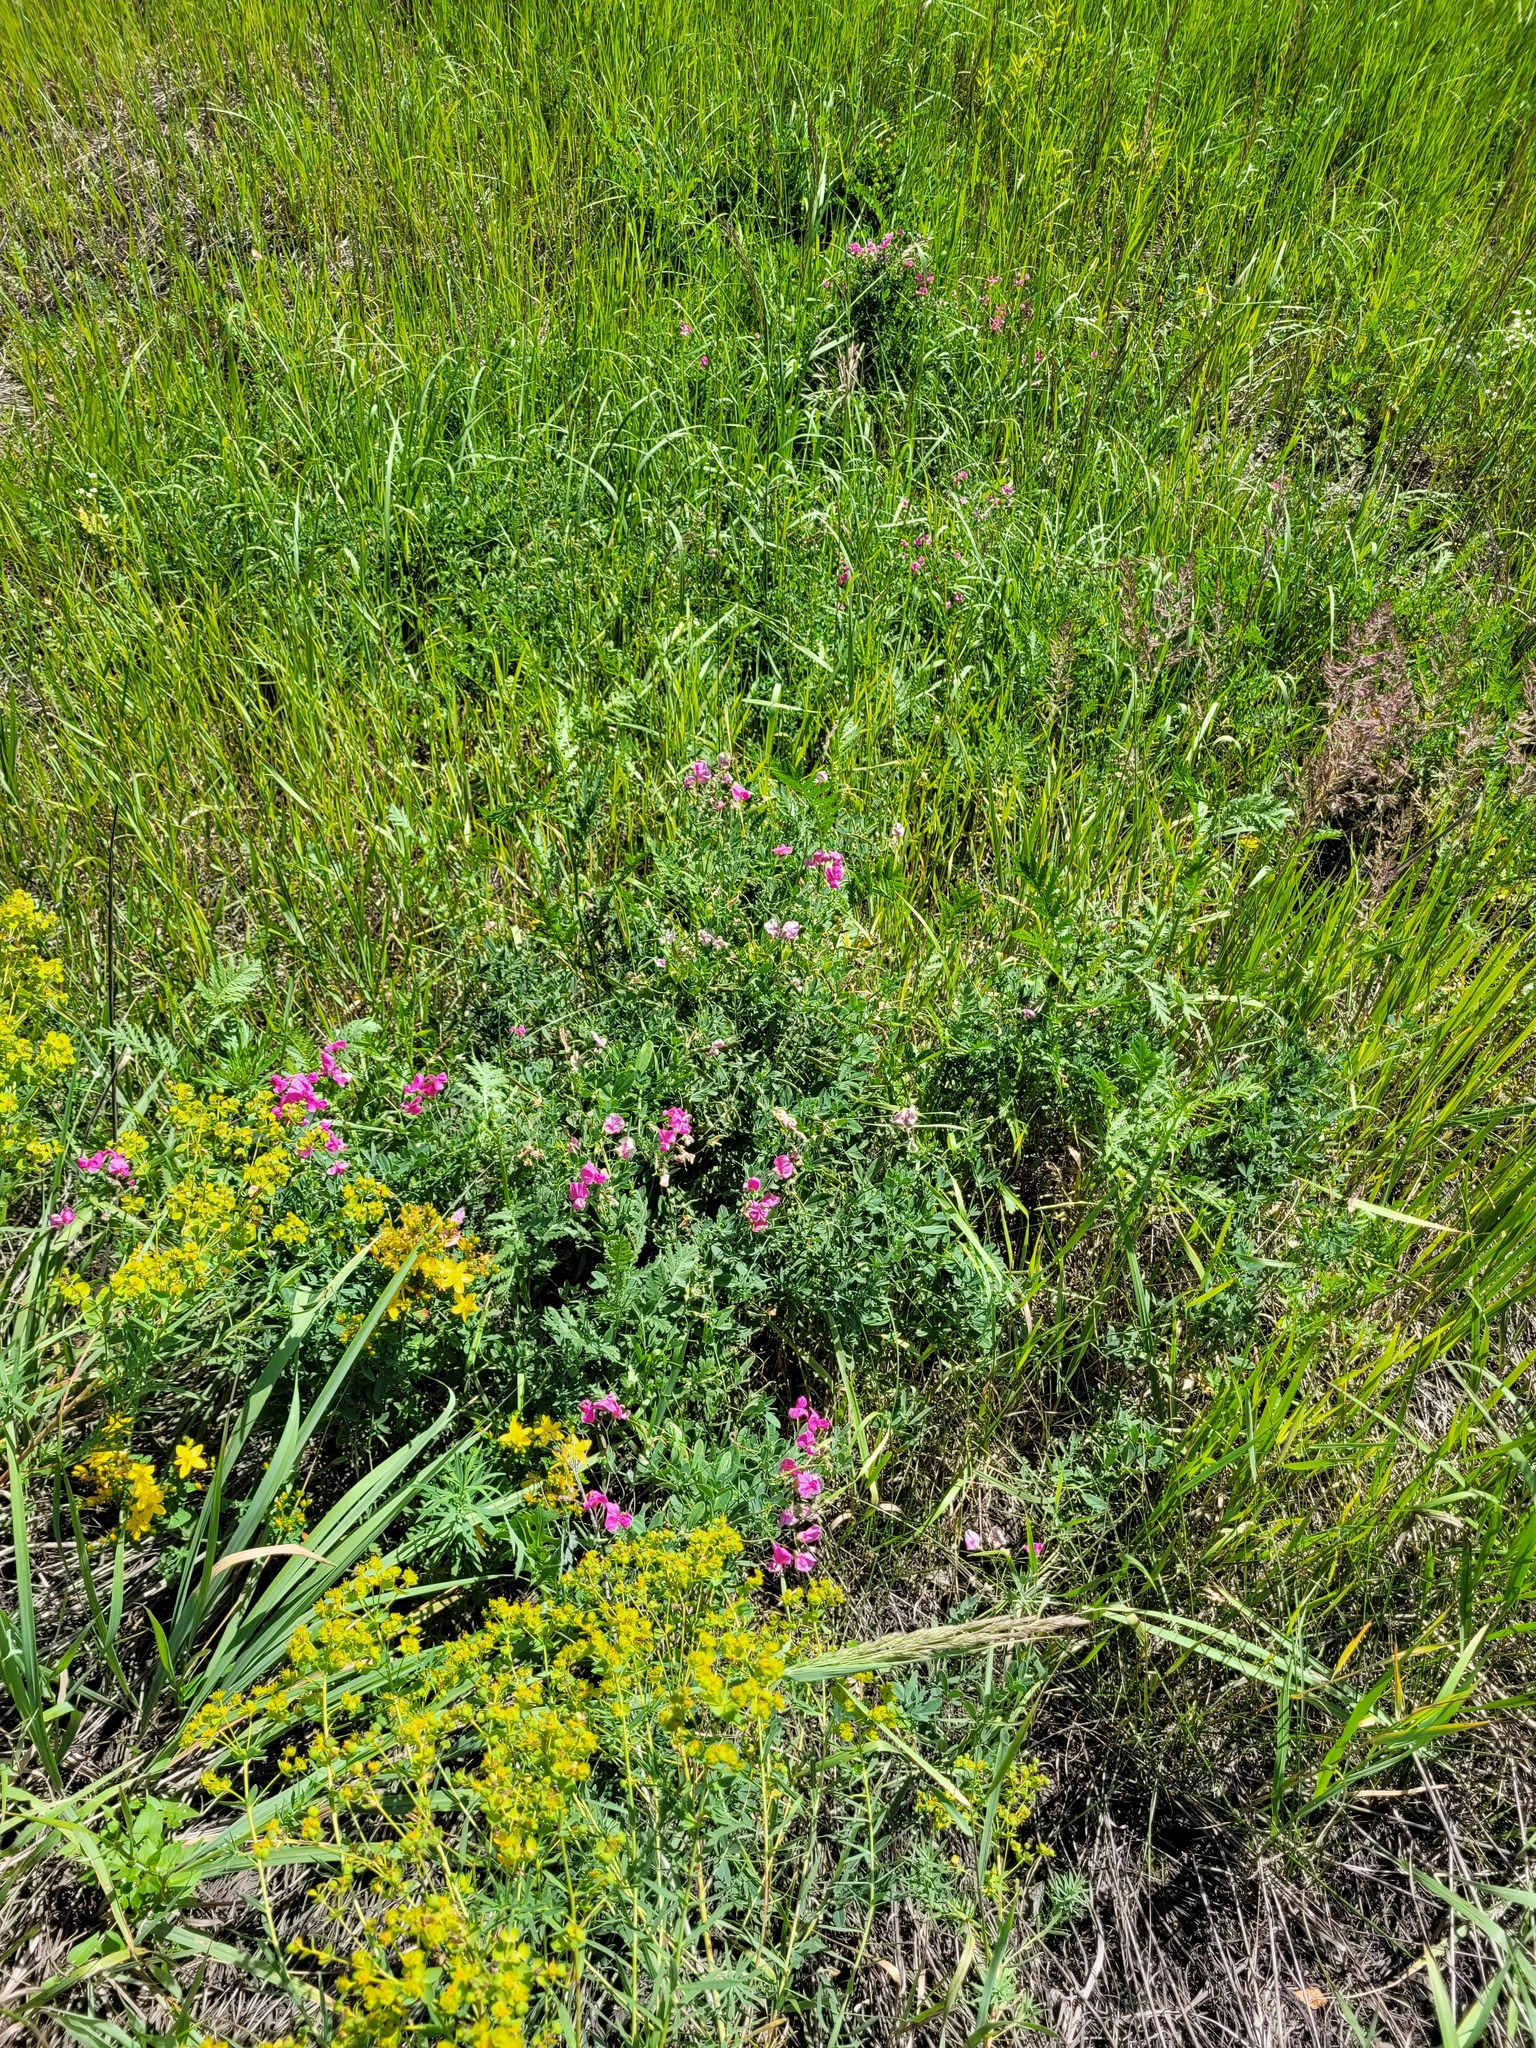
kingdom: Plantae
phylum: Tracheophyta
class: Magnoliopsida
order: Fabales
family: Fabaceae
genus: Lathyrus
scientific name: Lathyrus tuberosus
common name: Tuberous pea
